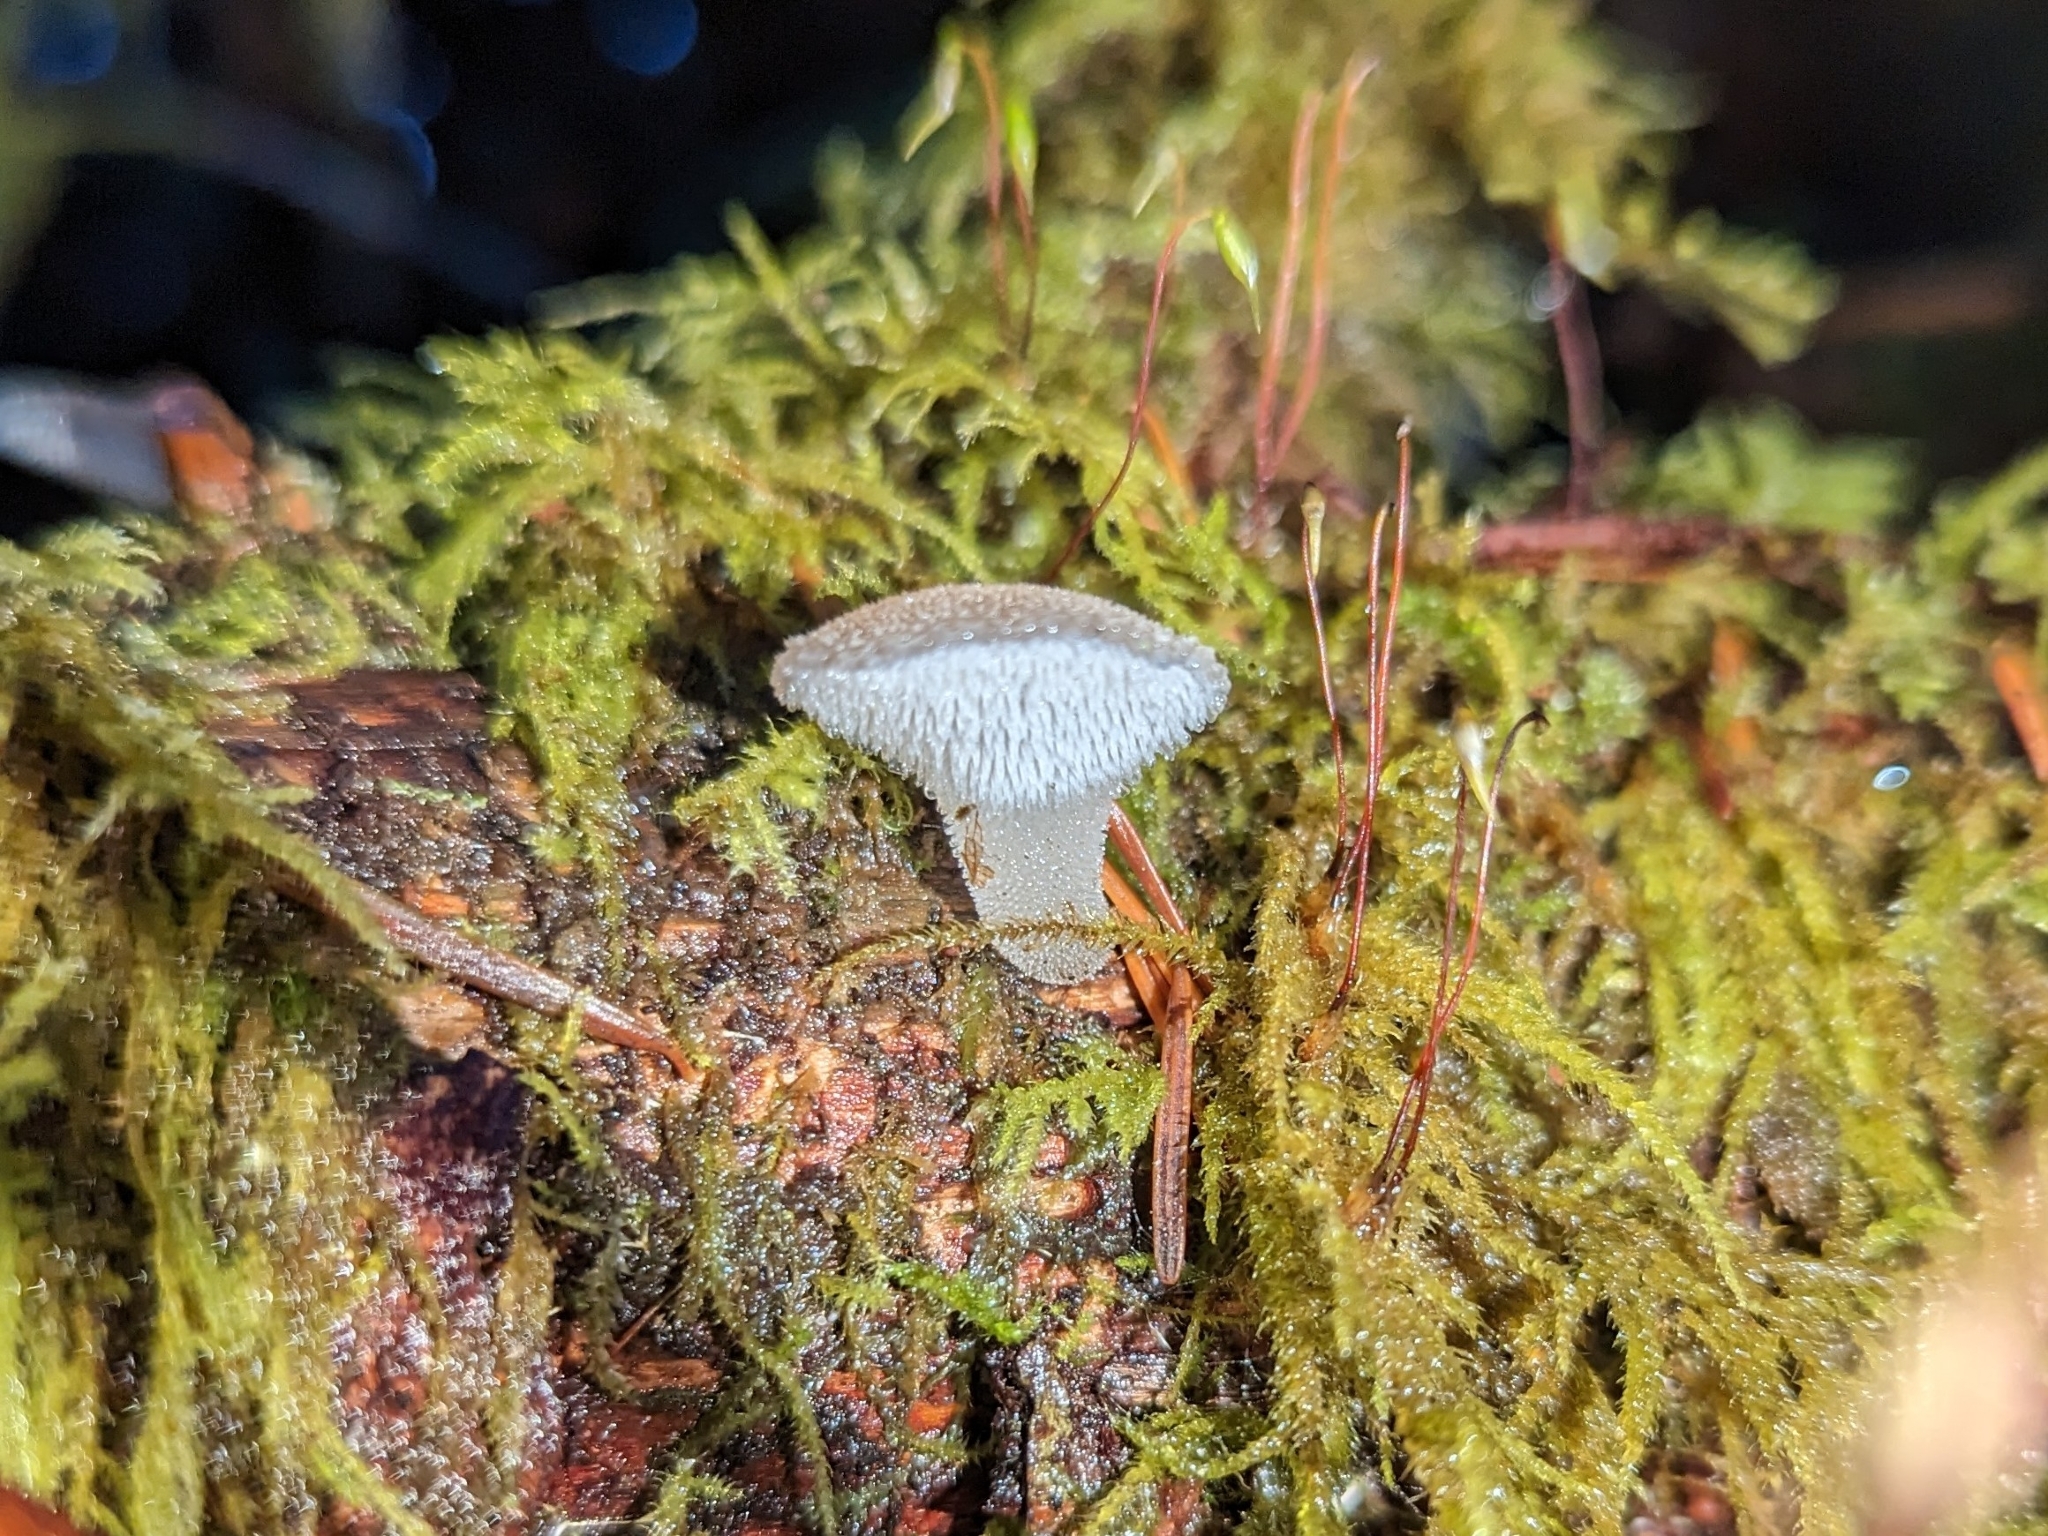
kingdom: Fungi
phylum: Basidiomycota
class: Agaricomycetes
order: Auriculariales
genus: Pseudohydnum
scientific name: Pseudohydnum gelatinosum
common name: Jelly tongue
